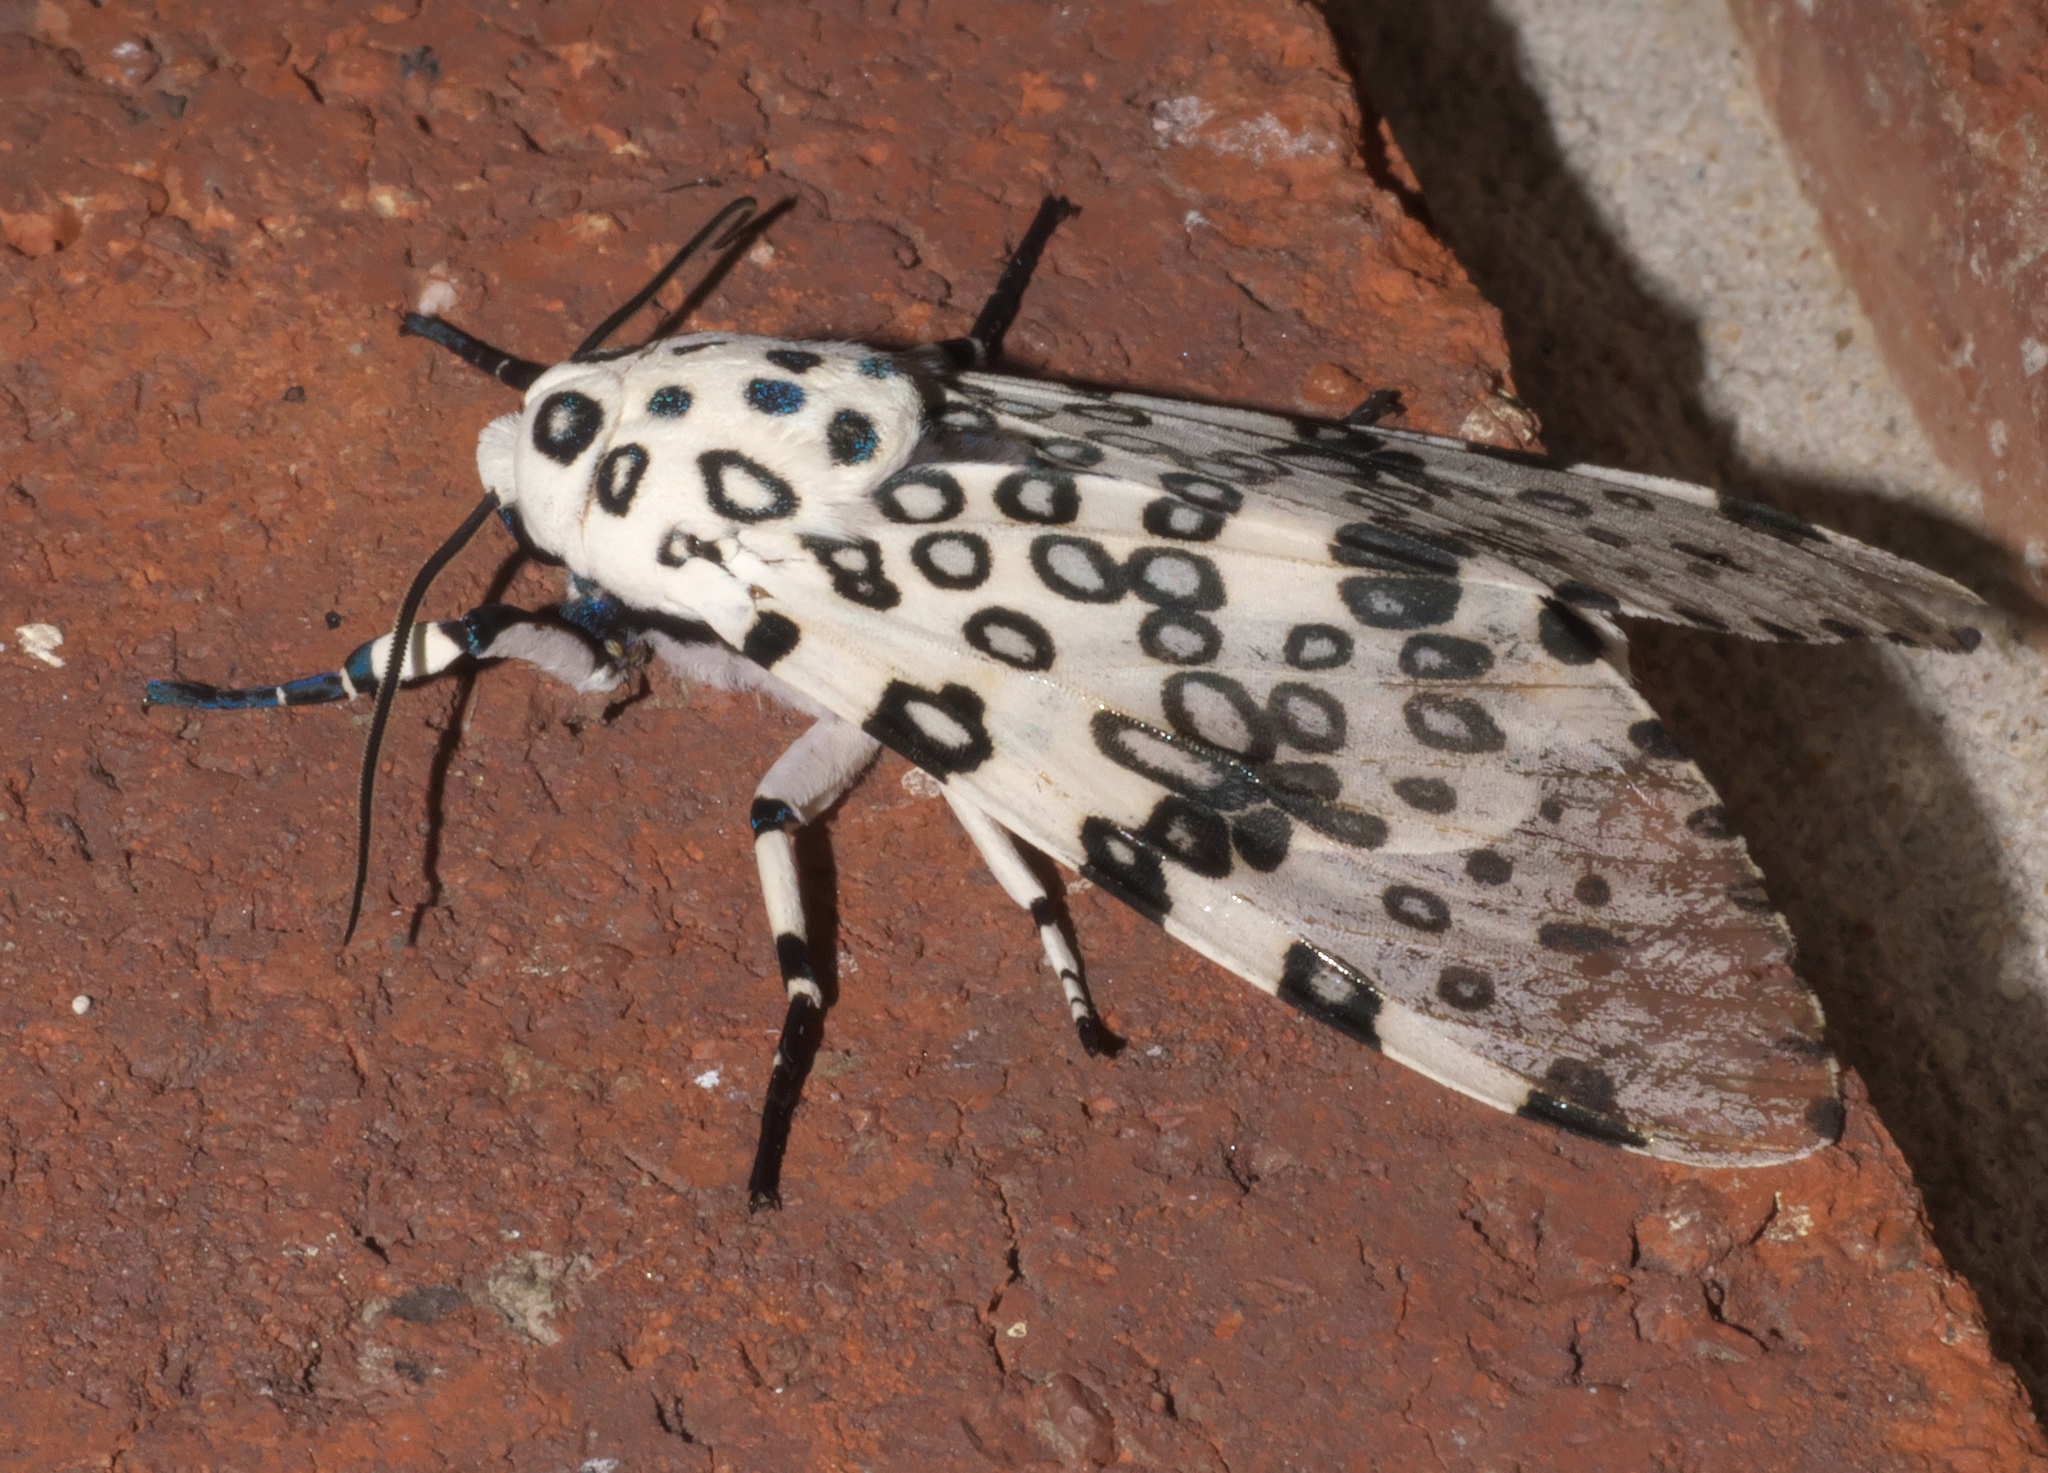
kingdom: Animalia
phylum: Arthropoda
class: Insecta
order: Lepidoptera
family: Erebidae
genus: Hypercompe
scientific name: Hypercompe scribonia
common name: Giant leopard moth
